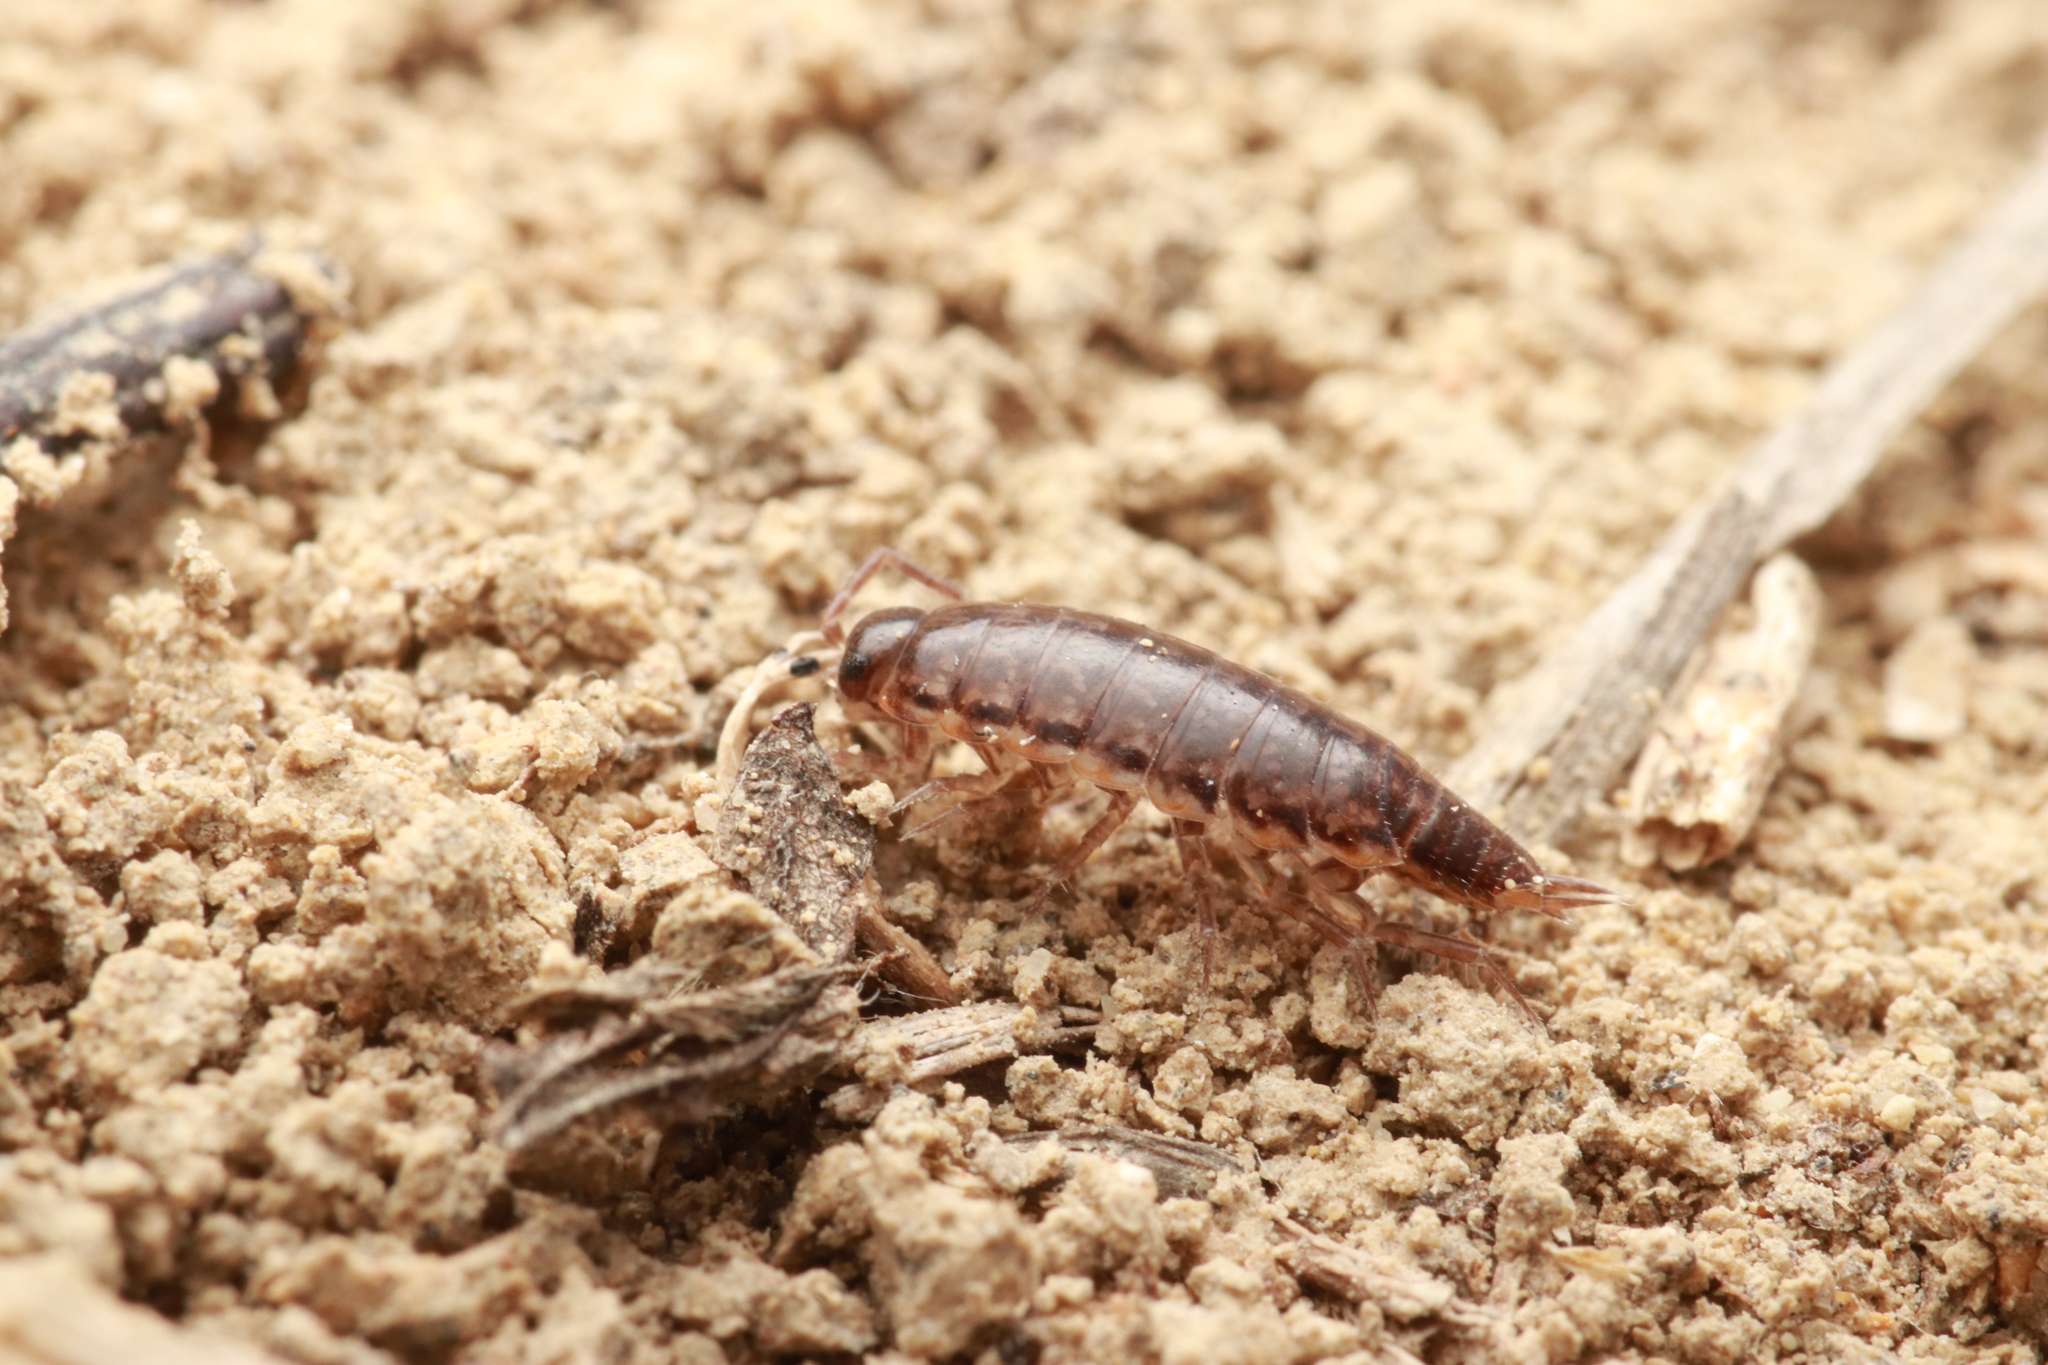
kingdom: Animalia
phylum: Arthropoda
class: Malacostraca
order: Isopoda
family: Philosciidae
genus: Chaetophiloscia
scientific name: Chaetophiloscia elongata
